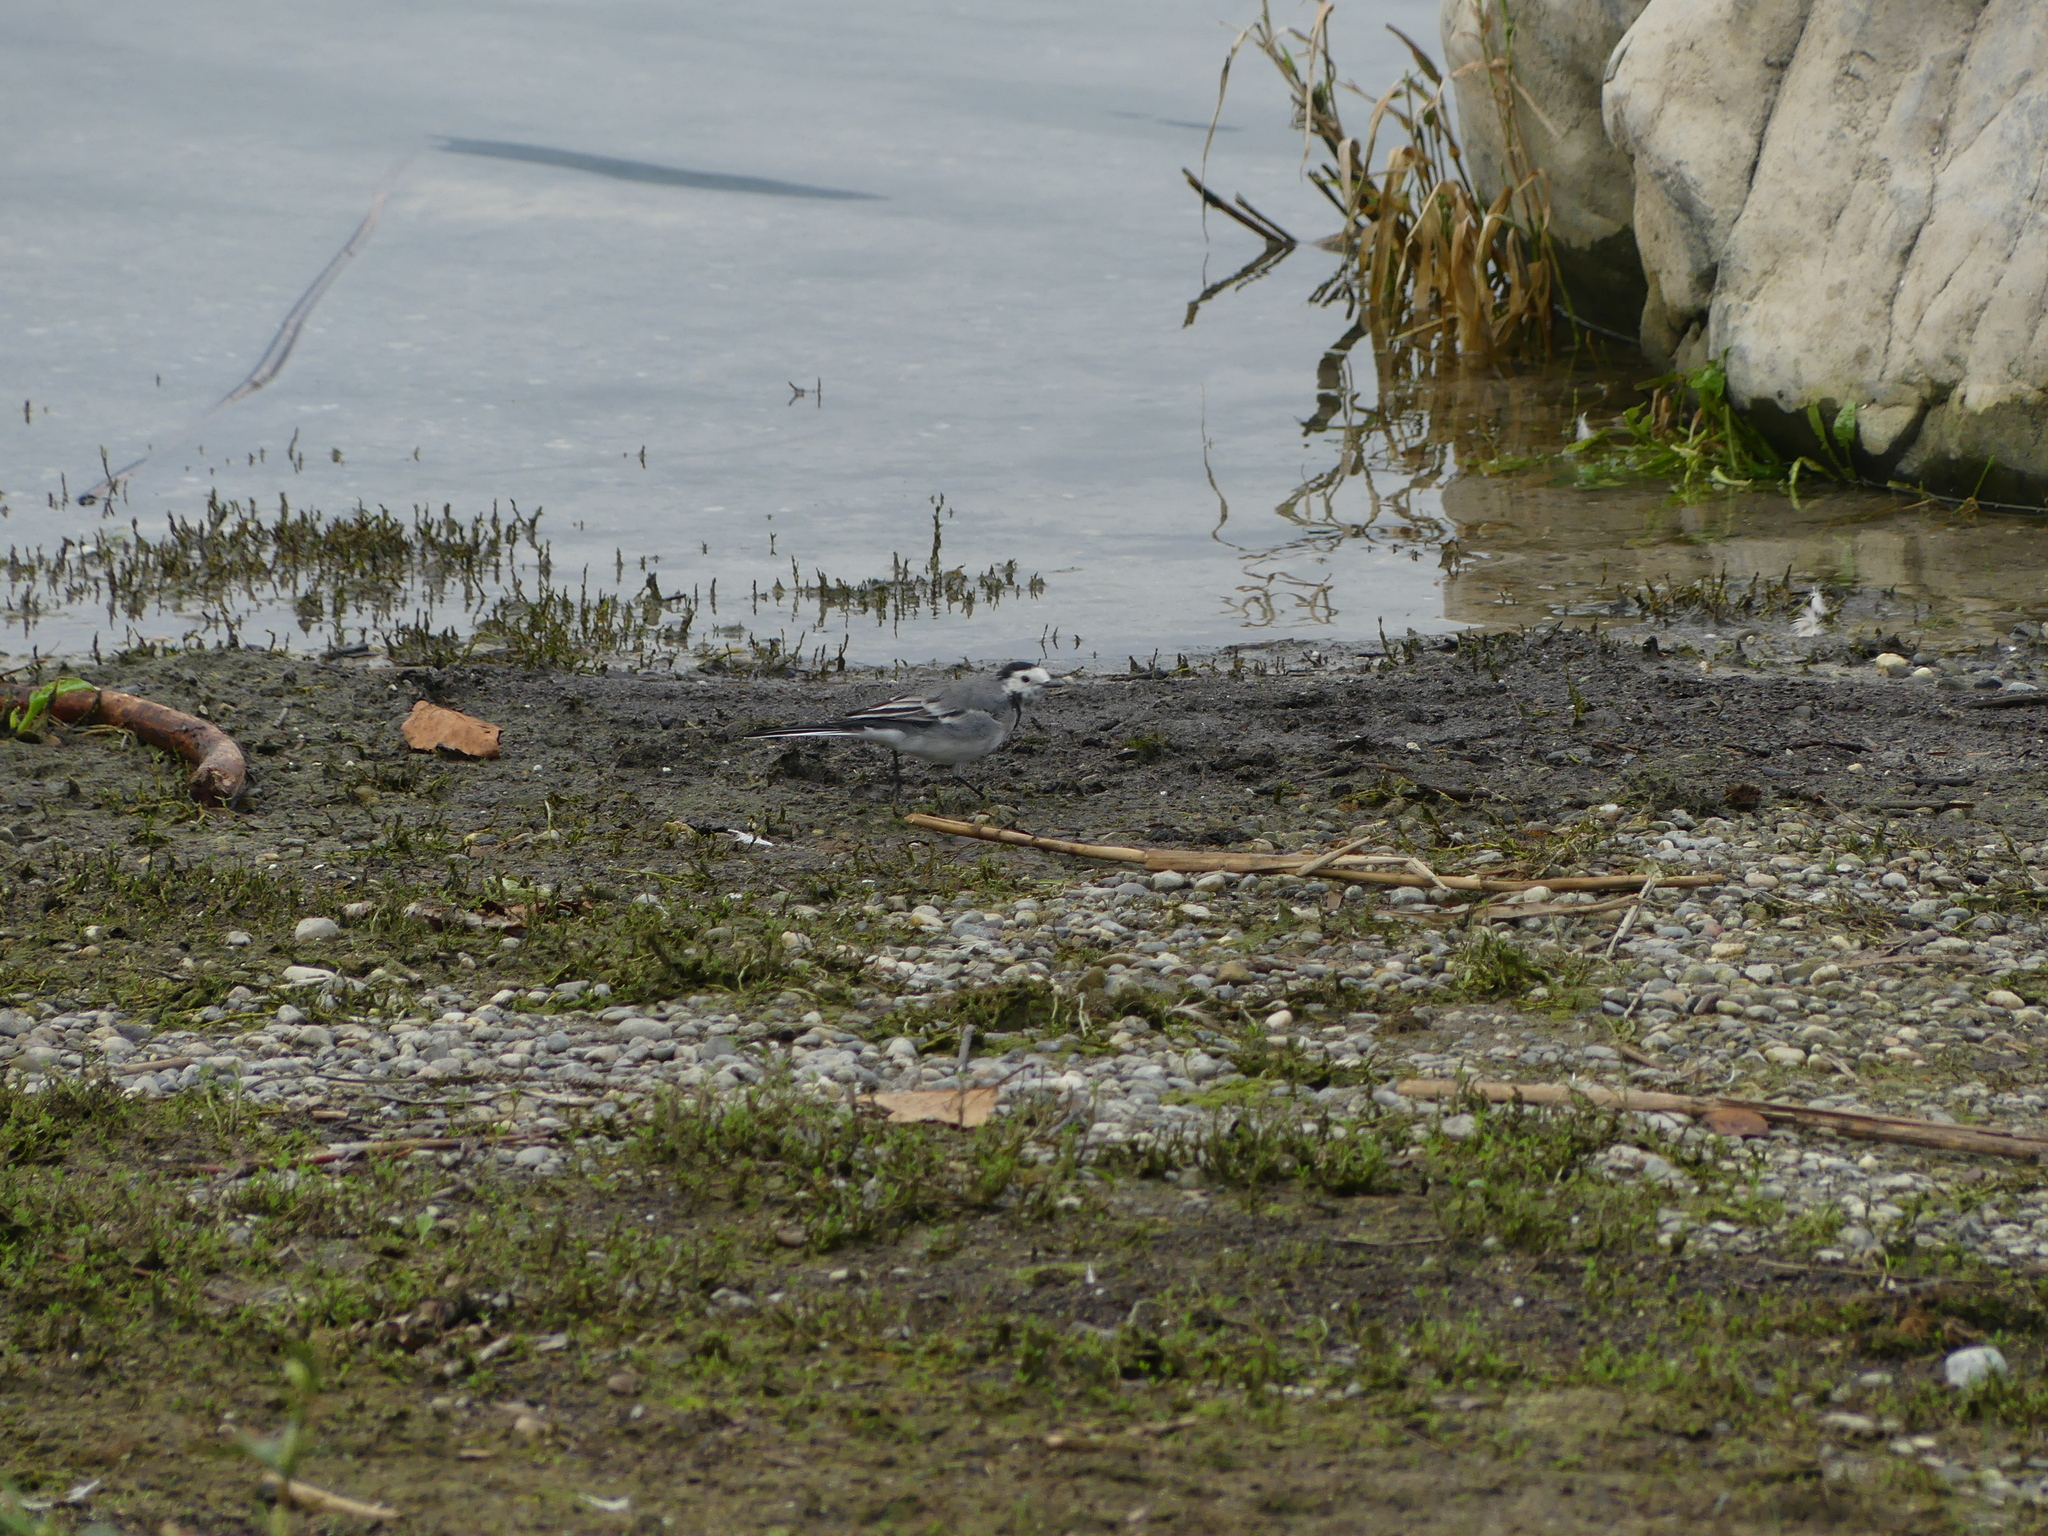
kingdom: Animalia
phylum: Chordata
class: Aves
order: Passeriformes
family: Motacillidae
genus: Motacilla
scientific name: Motacilla alba
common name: White wagtail
